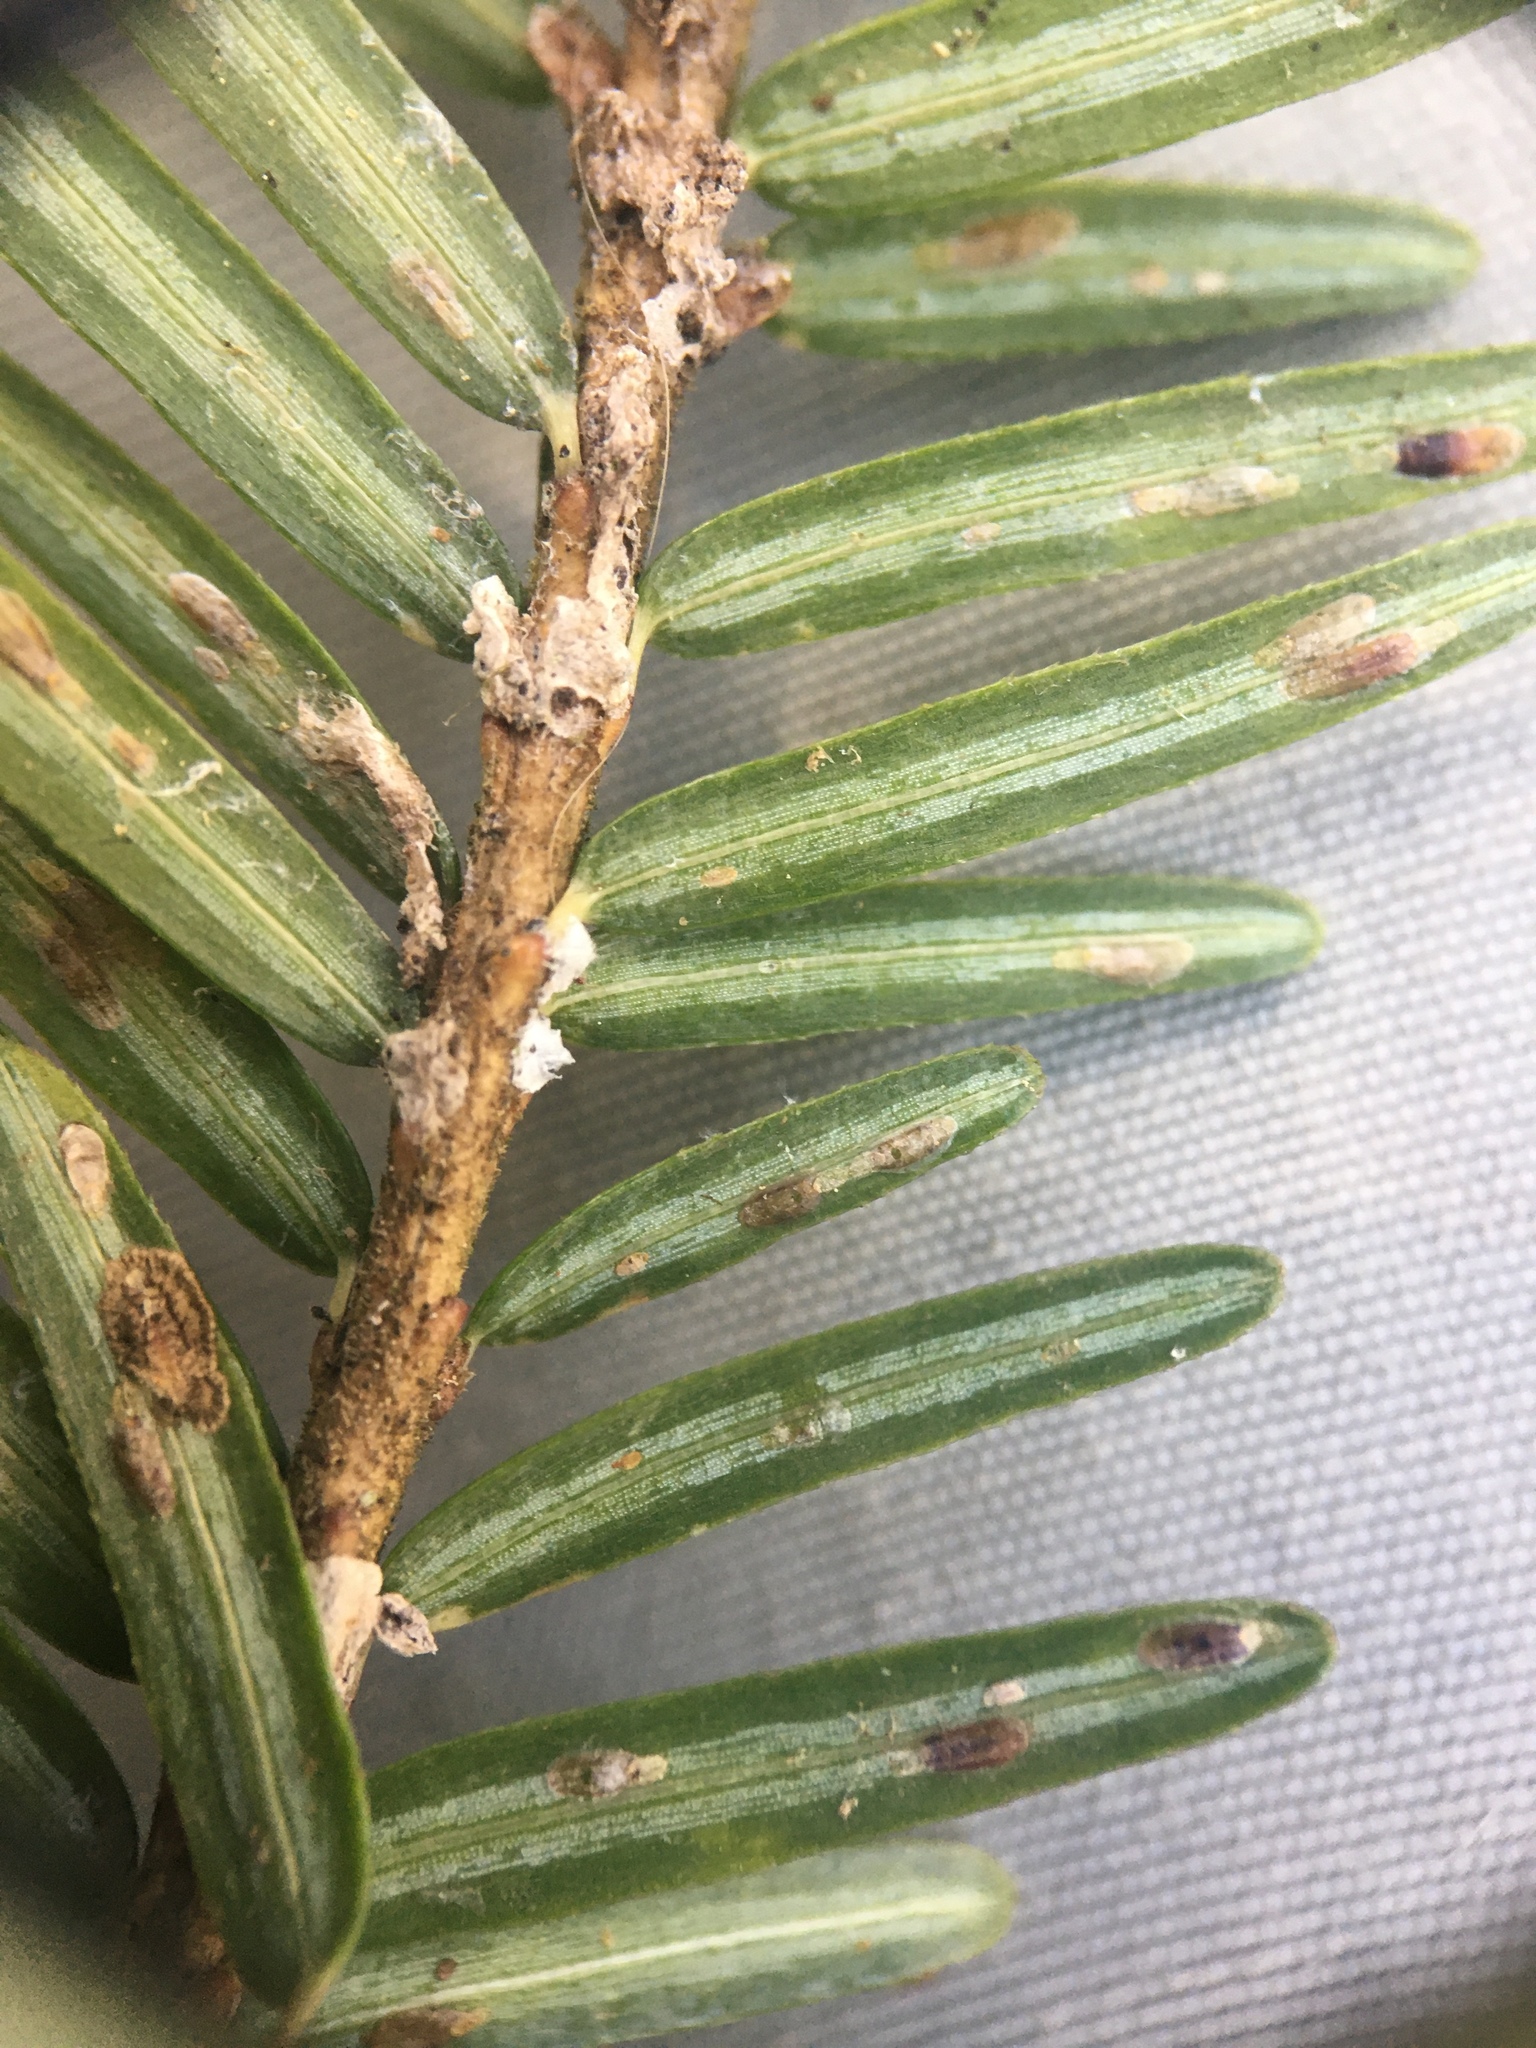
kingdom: Animalia
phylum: Arthropoda
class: Insecta
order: Hemiptera
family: Diaspididae
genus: Fiorinia
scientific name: Fiorinia externa
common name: Elongate hemlock scale
